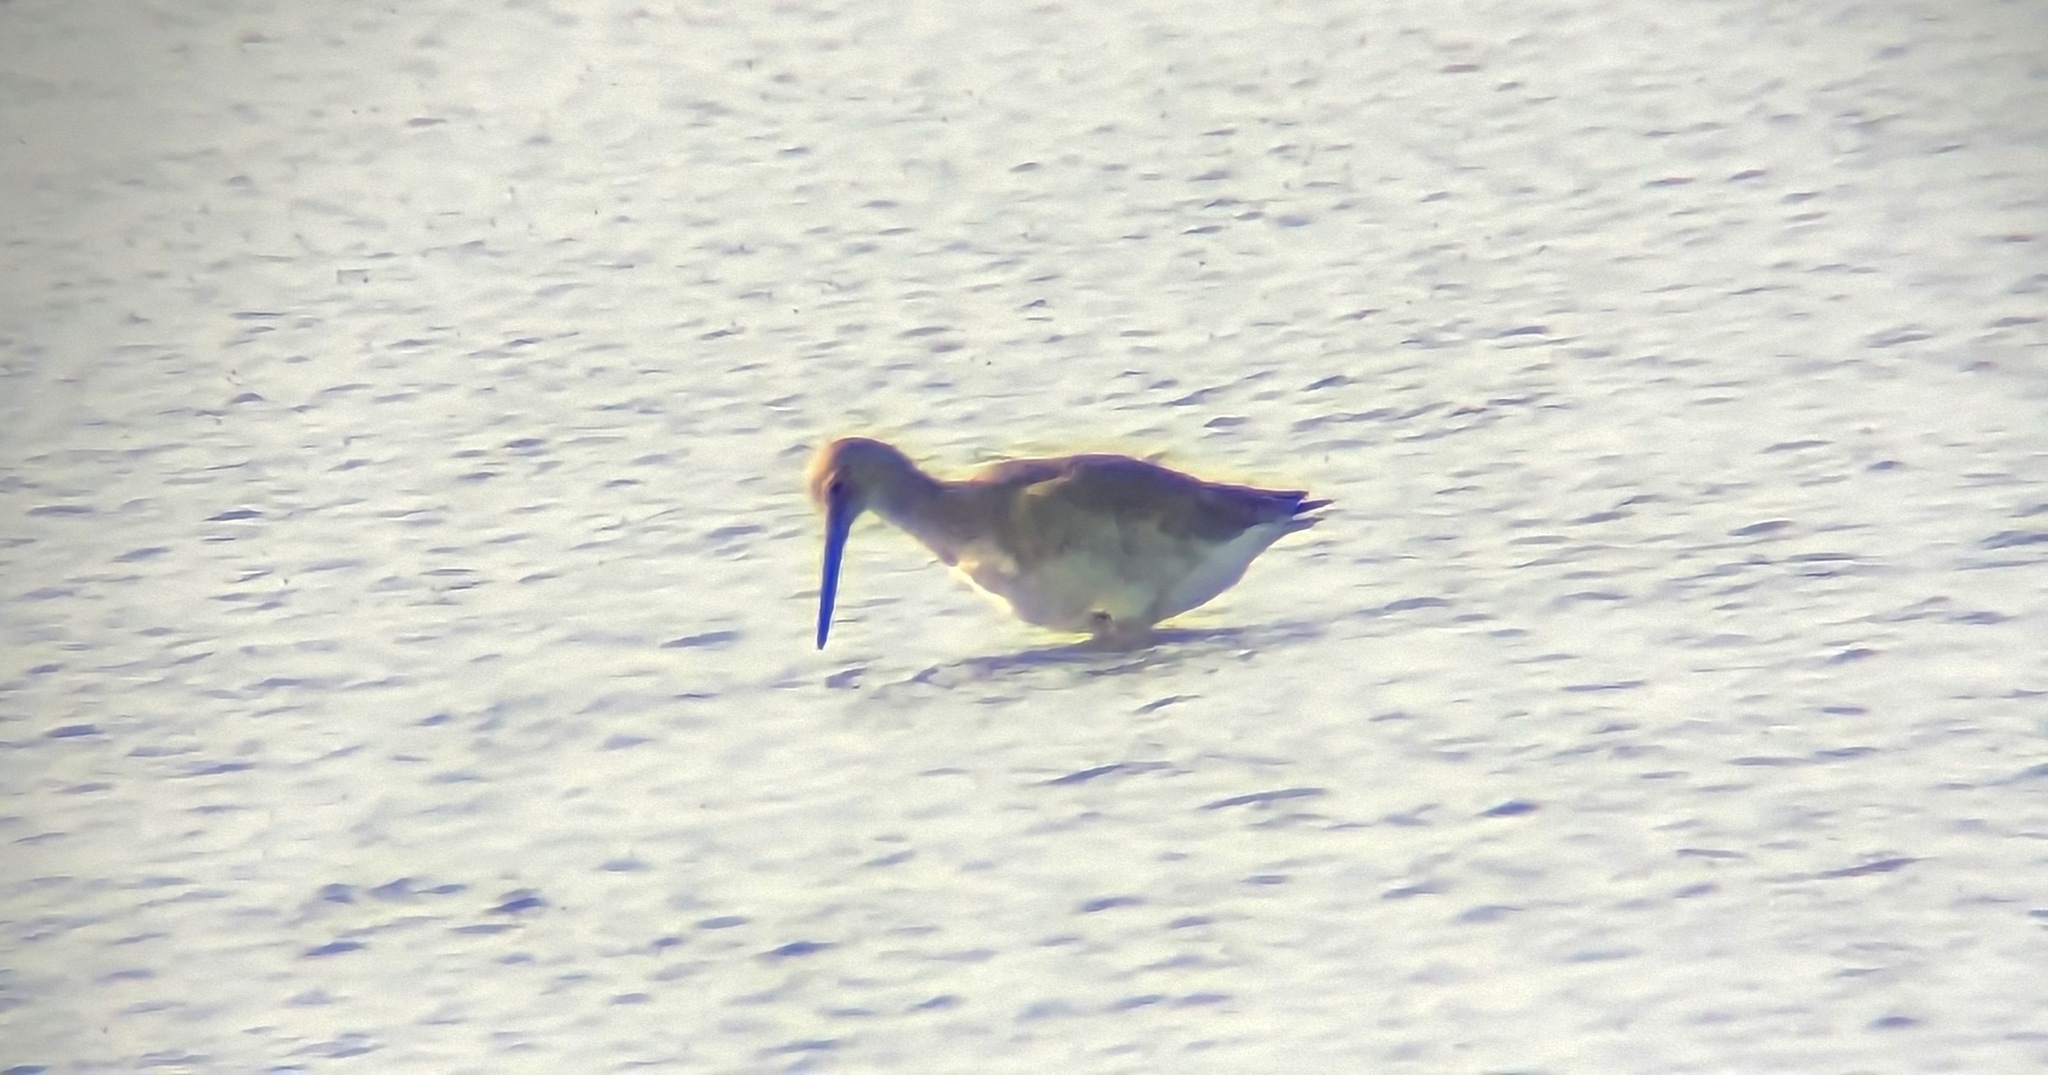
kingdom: Animalia
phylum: Chordata
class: Aves
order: Charadriiformes
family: Scolopacidae
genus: Tringa
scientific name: Tringa semipalmata
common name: Willet
